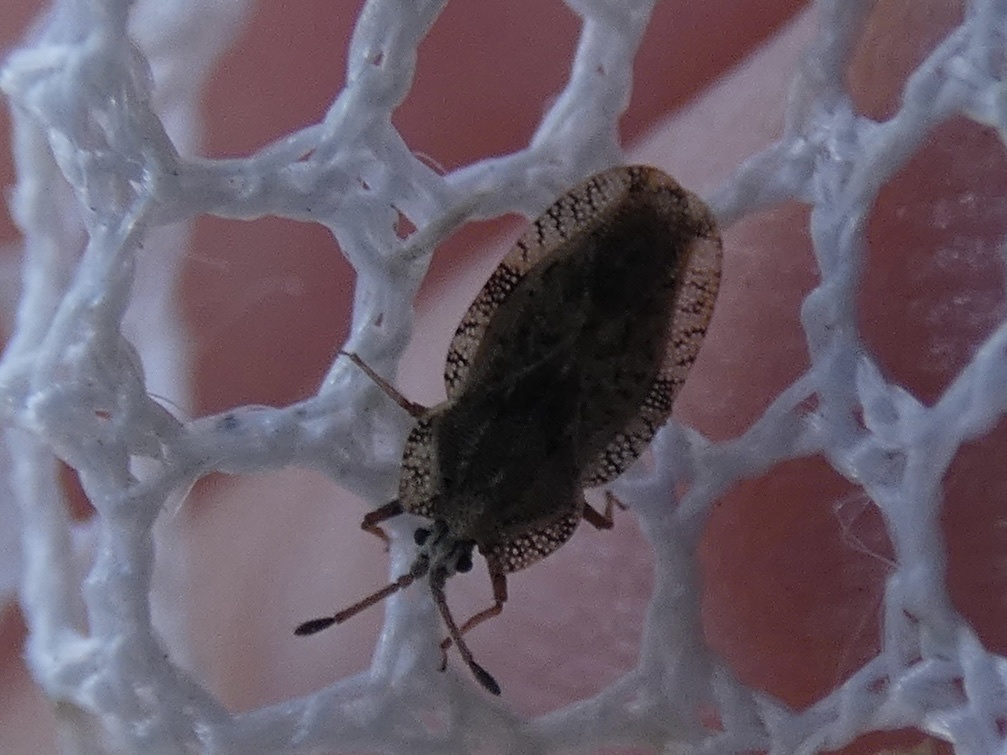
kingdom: Animalia
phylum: Arthropoda
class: Insecta
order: Hemiptera
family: Tingidae
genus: Tingis
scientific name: Tingis ampliata
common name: Creeping thistle lacebug
